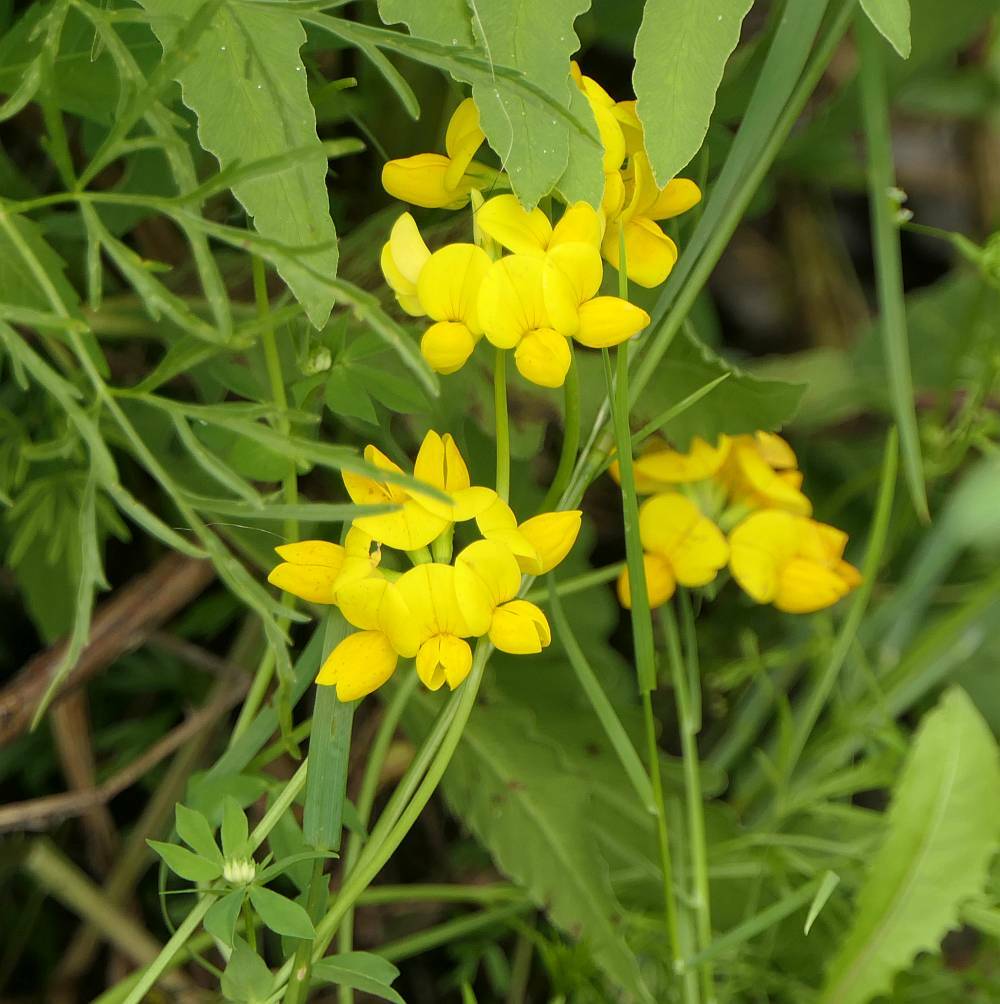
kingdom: Plantae
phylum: Tracheophyta
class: Magnoliopsida
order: Fabales
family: Fabaceae
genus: Lotus
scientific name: Lotus corniculatus
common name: Common bird's-foot-trefoil
